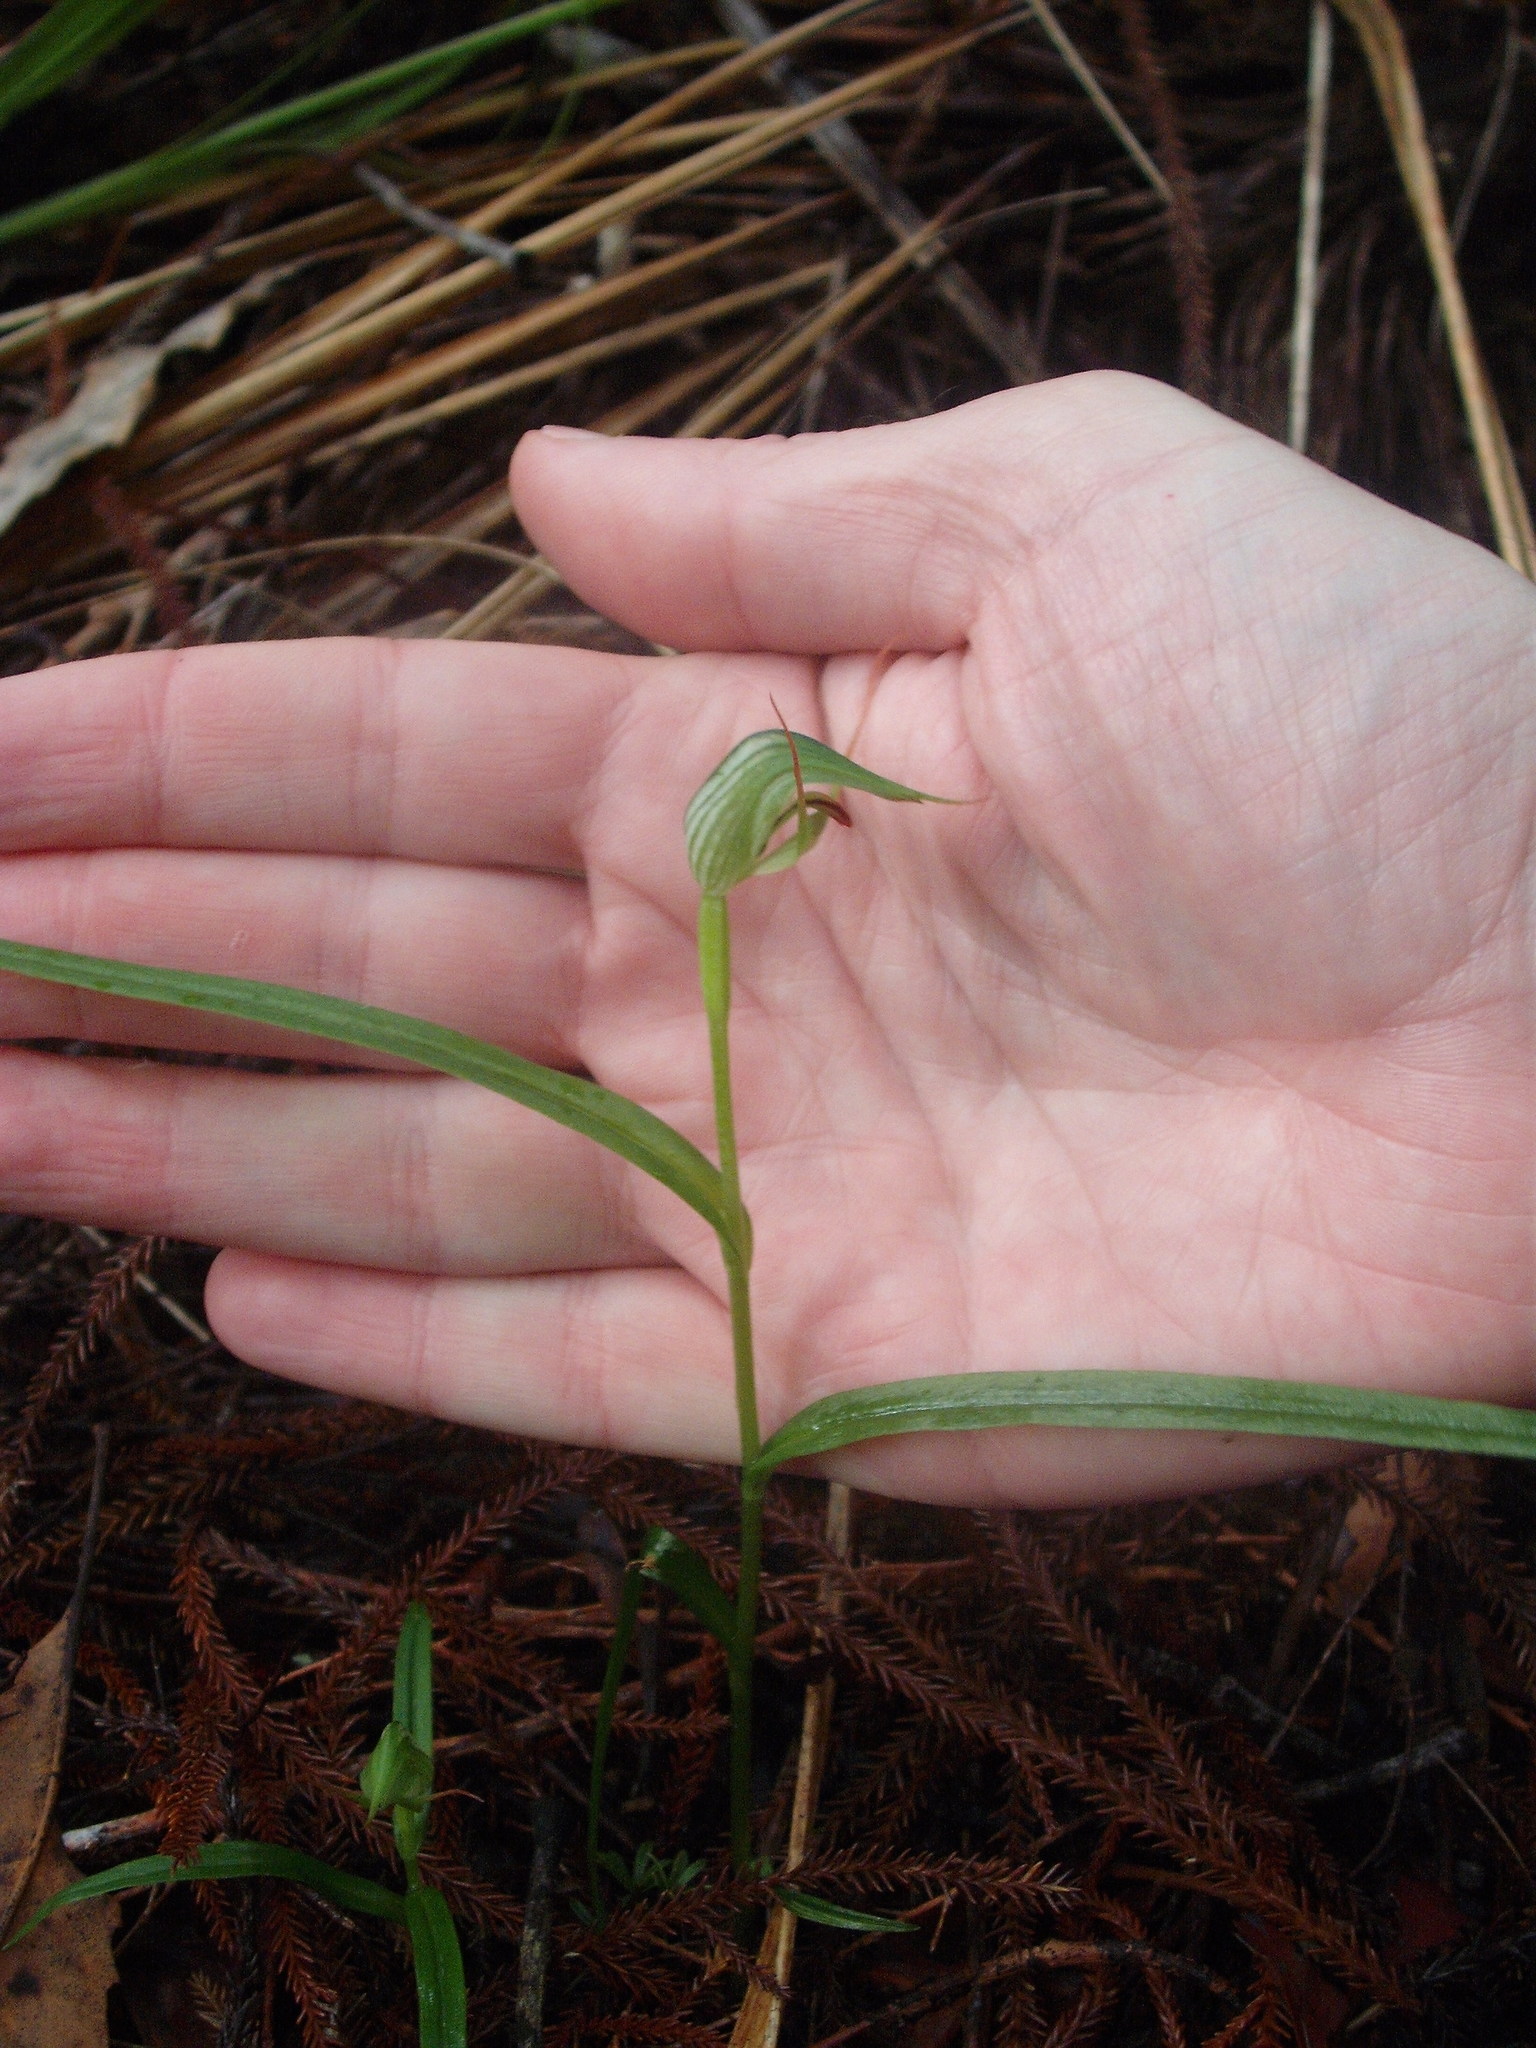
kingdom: Plantae
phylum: Tracheophyta
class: Liliopsida
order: Asparagales
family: Orchidaceae
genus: Pterostylis
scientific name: Pterostylis agathicola
